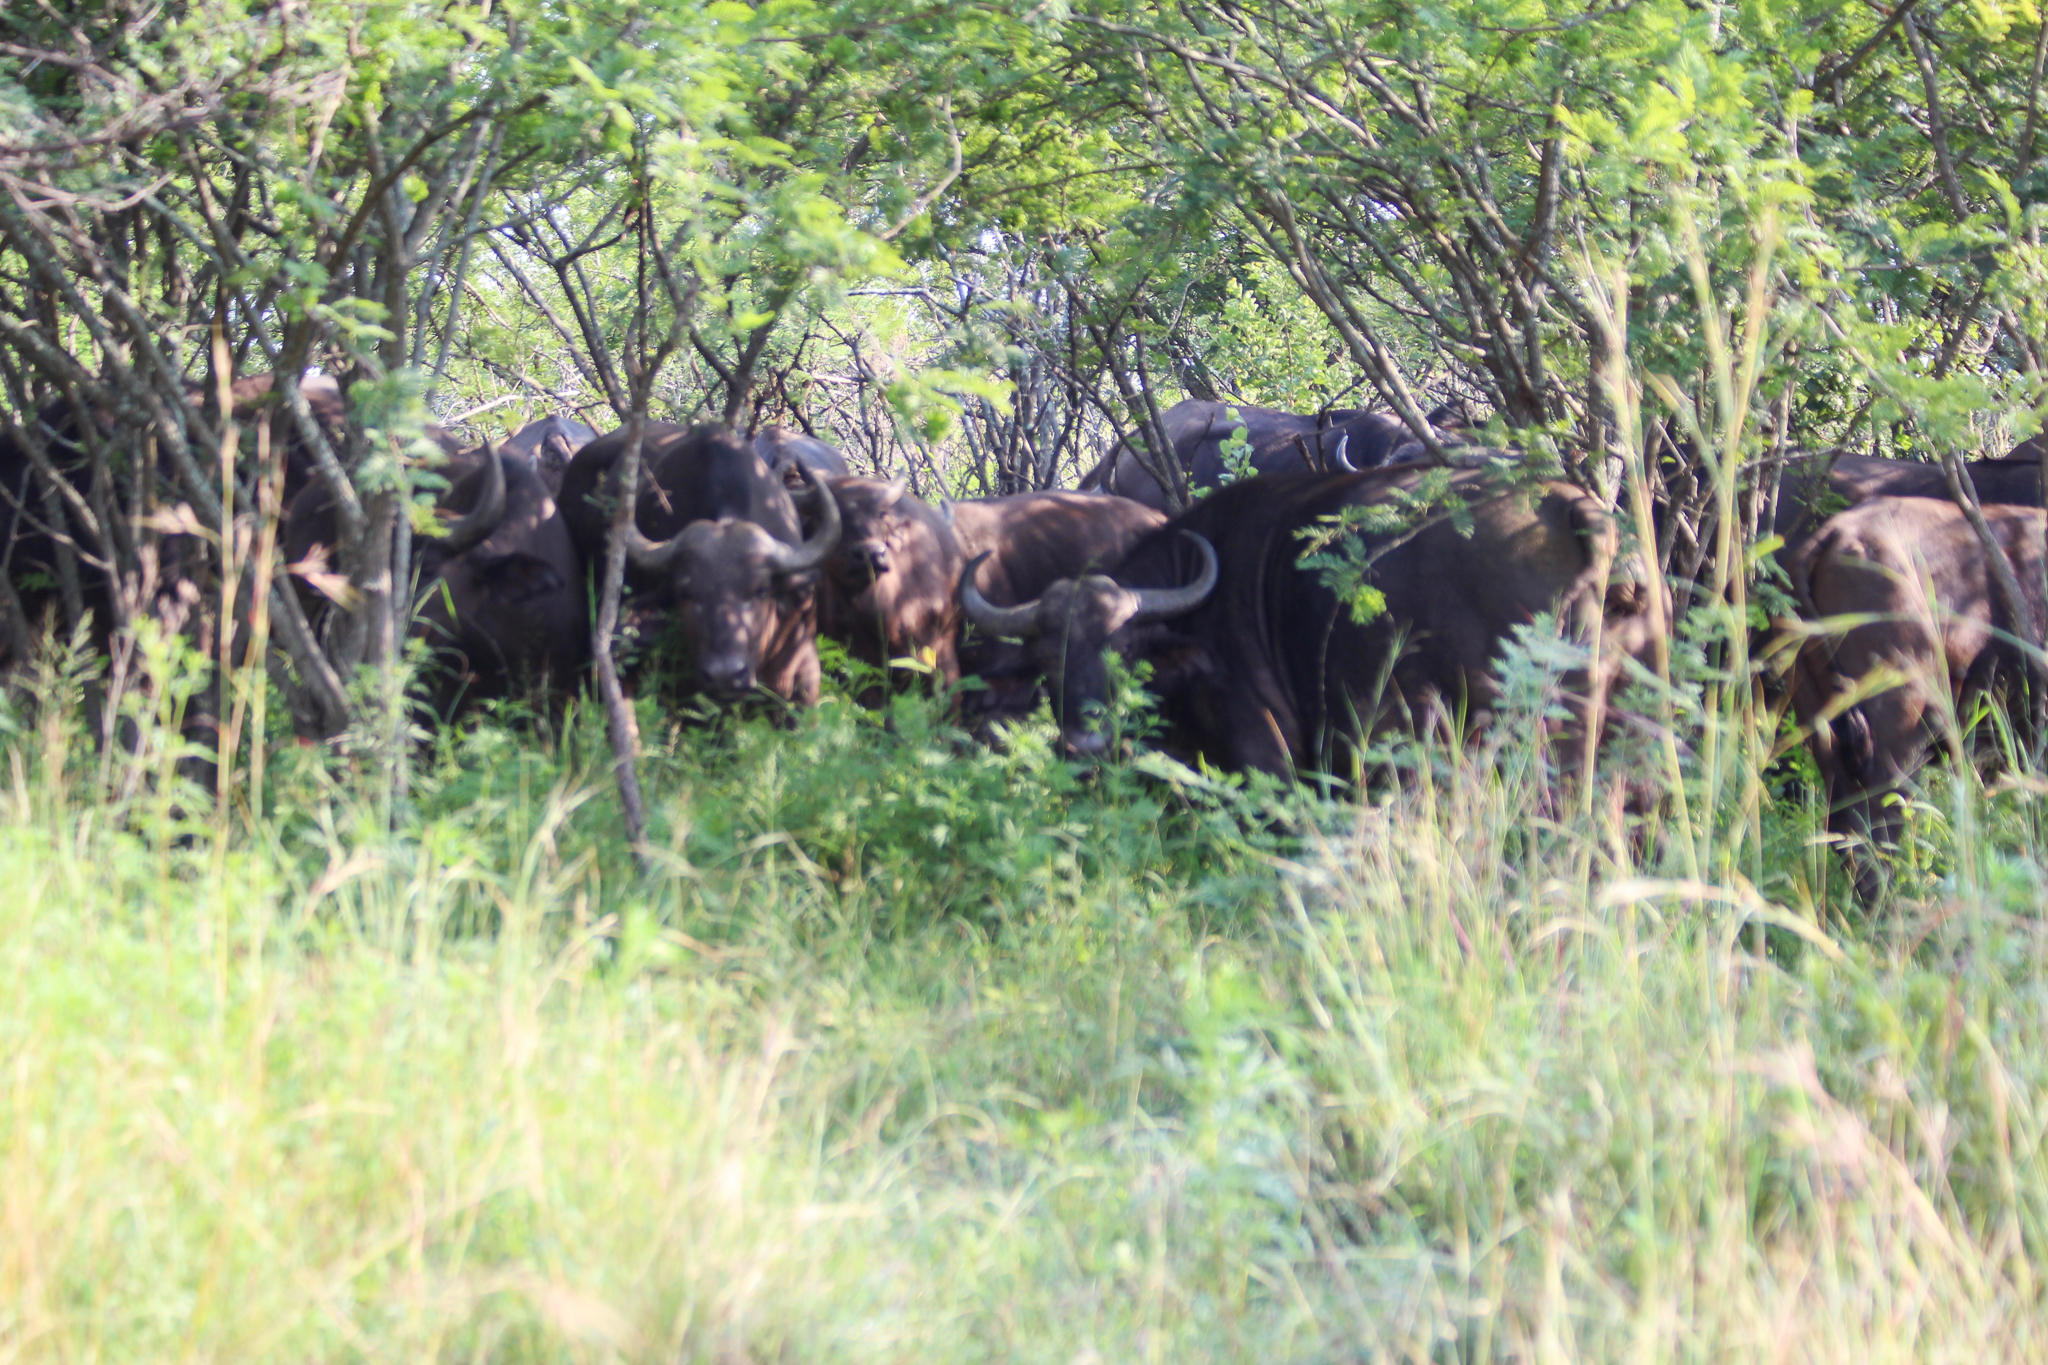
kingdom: Animalia
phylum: Chordata
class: Mammalia
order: Artiodactyla
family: Bovidae
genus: Syncerus
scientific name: Syncerus caffer
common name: African buffalo
